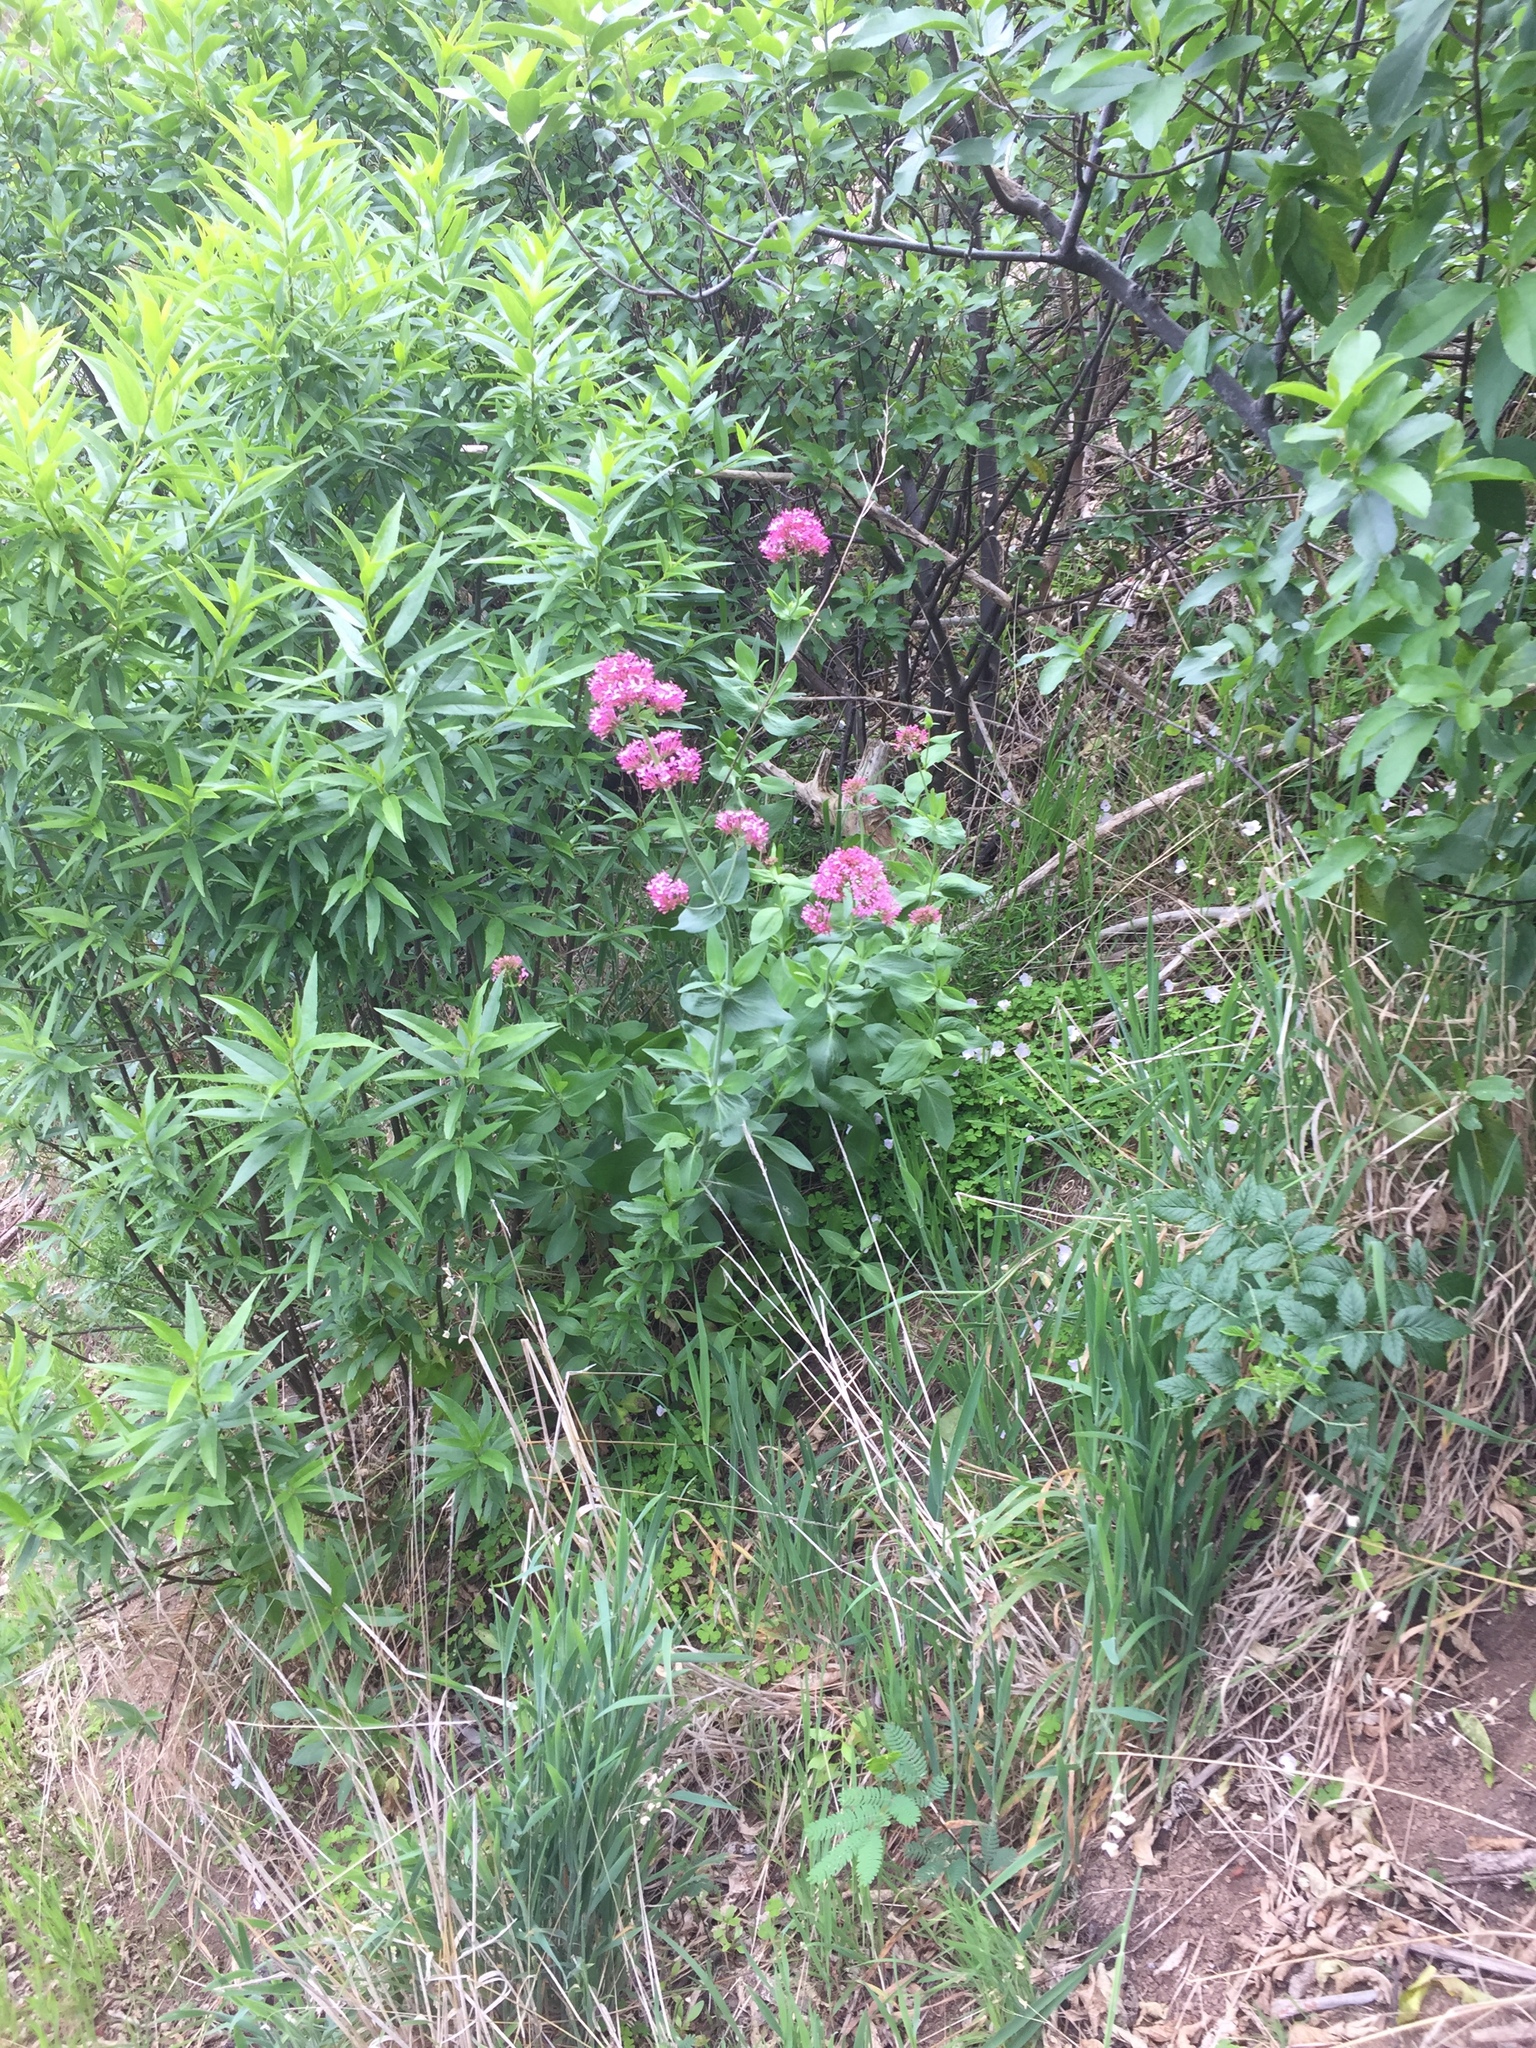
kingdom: Plantae
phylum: Tracheophyta
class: Magnoliopsida
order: Dipsacales
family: Caprifoliaceae
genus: Centranthus
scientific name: Centranthus ruber
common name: Red valerian
